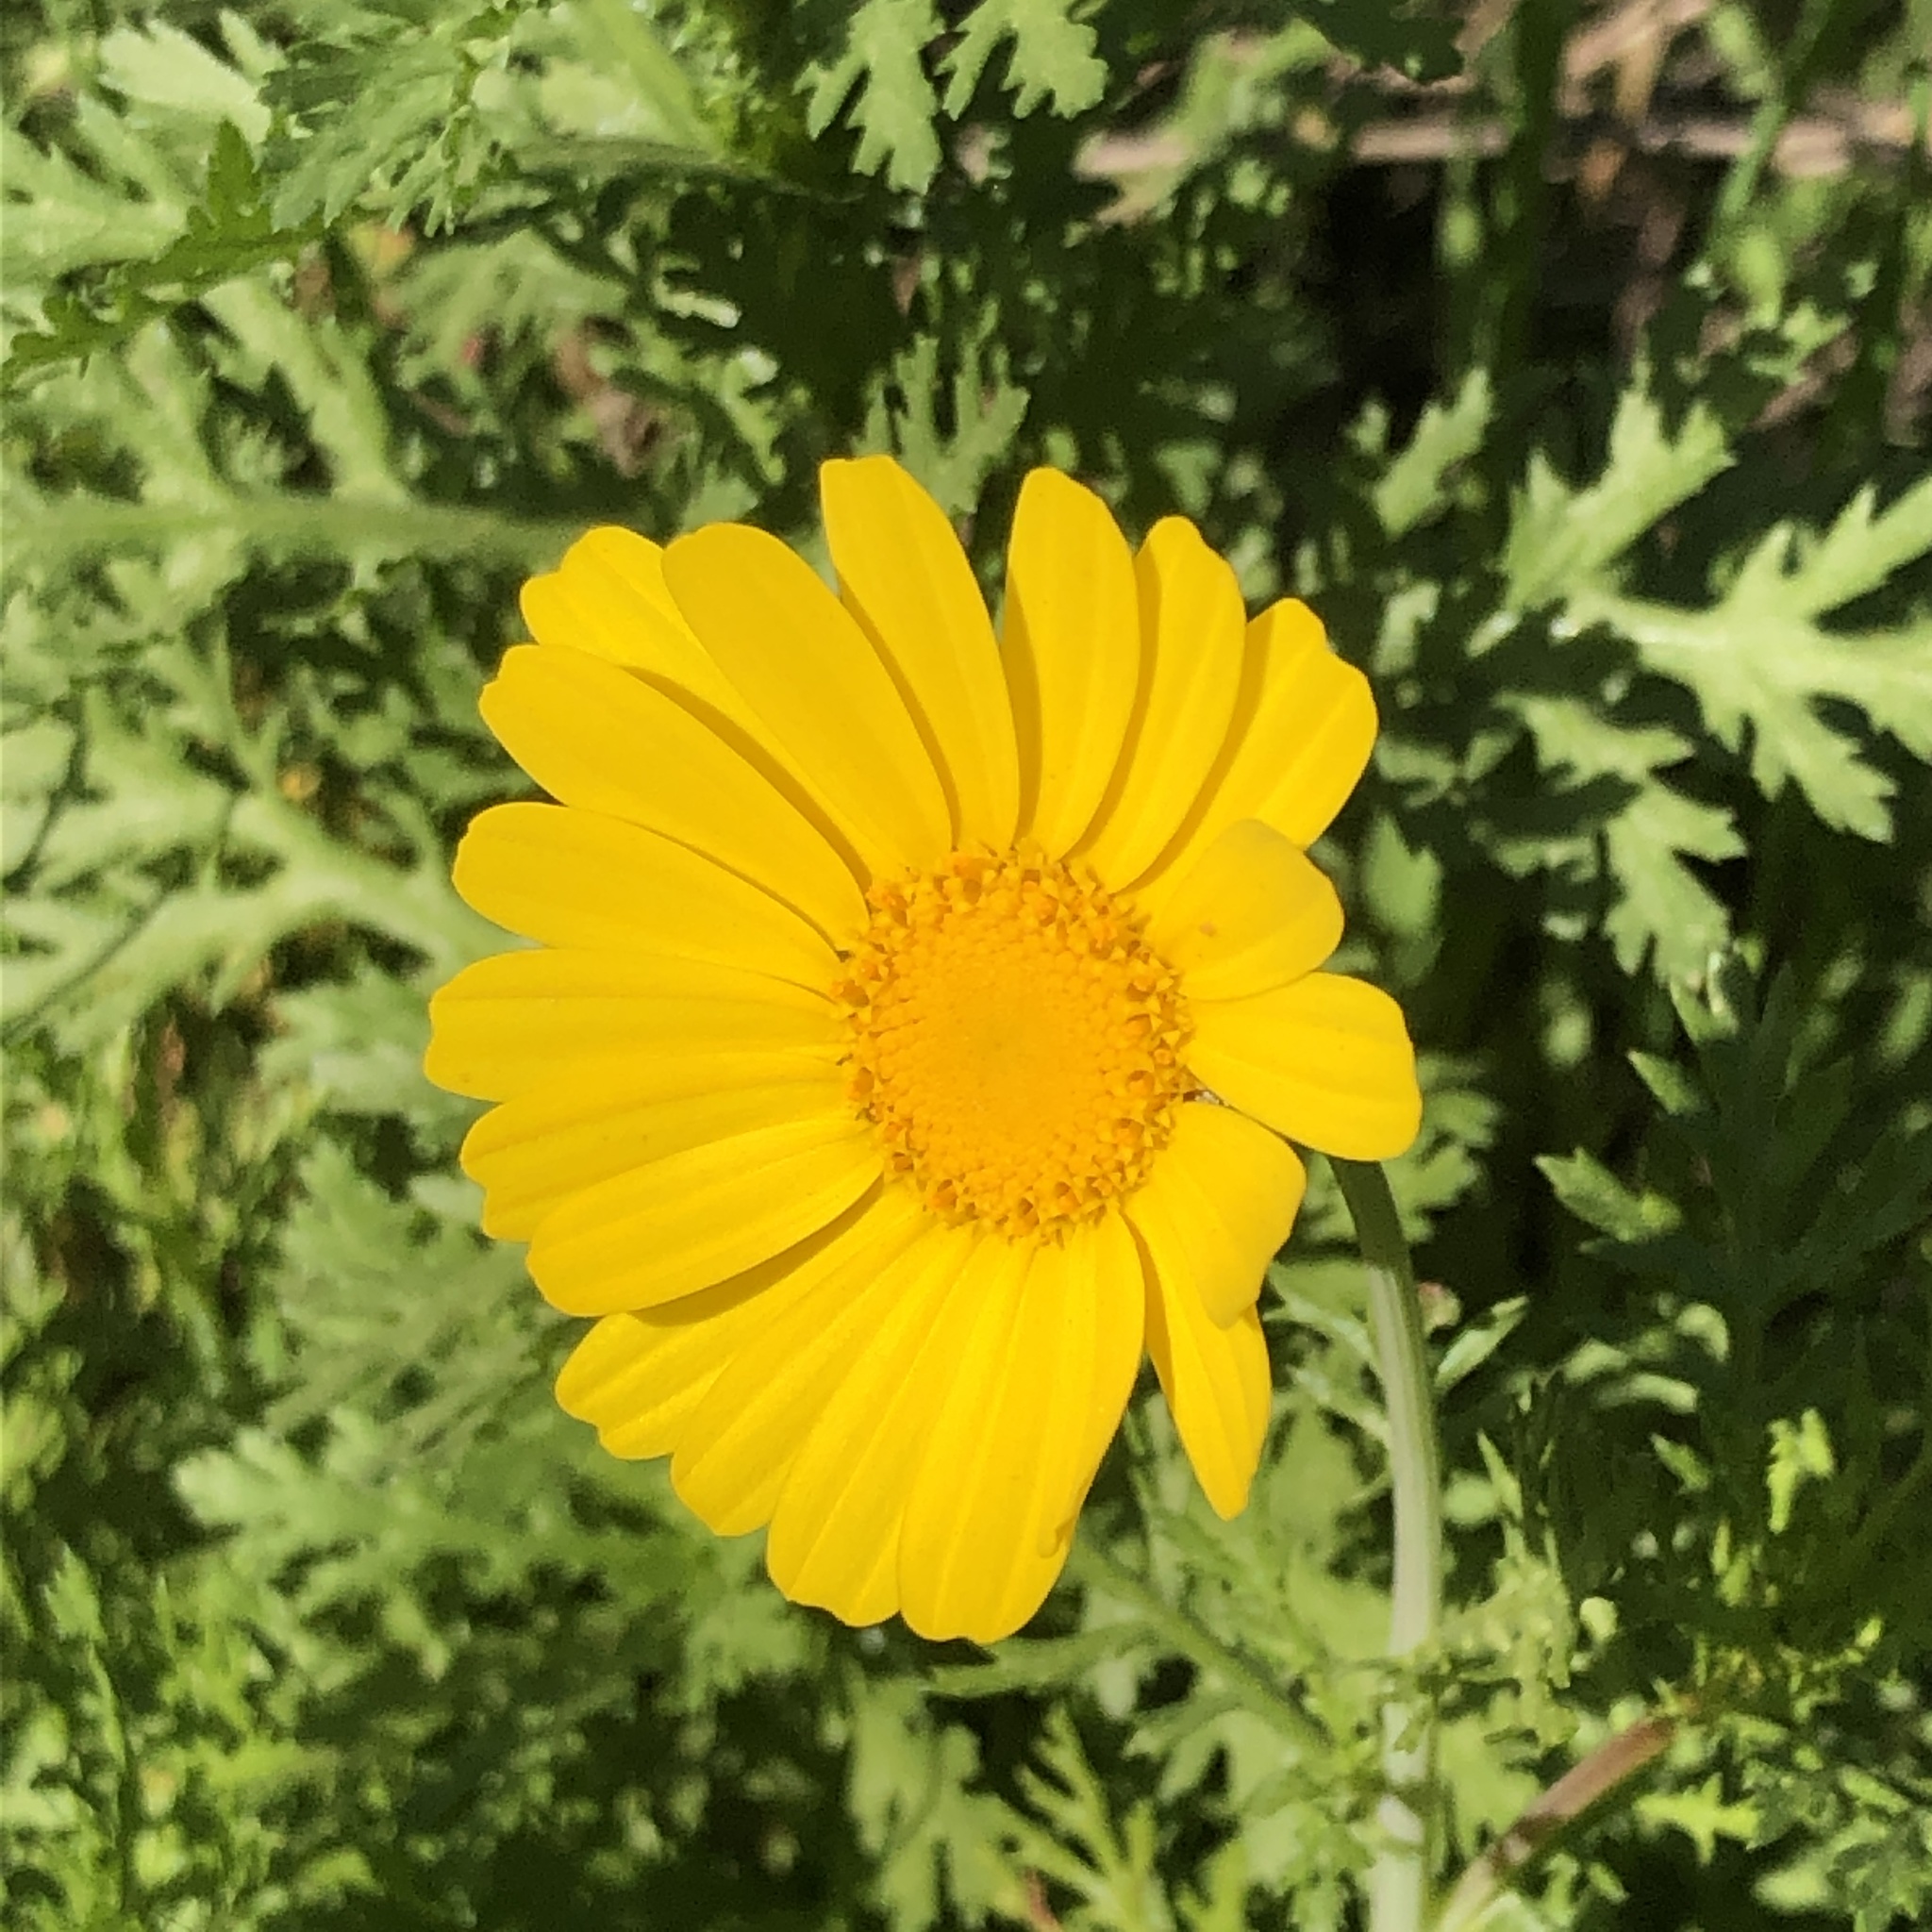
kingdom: Plantae
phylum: Tracheophyta
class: Magnoliopsida
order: Asterales
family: Asteraceae
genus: Glebionis
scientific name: Glebionis coronaria
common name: Crowndaisy
